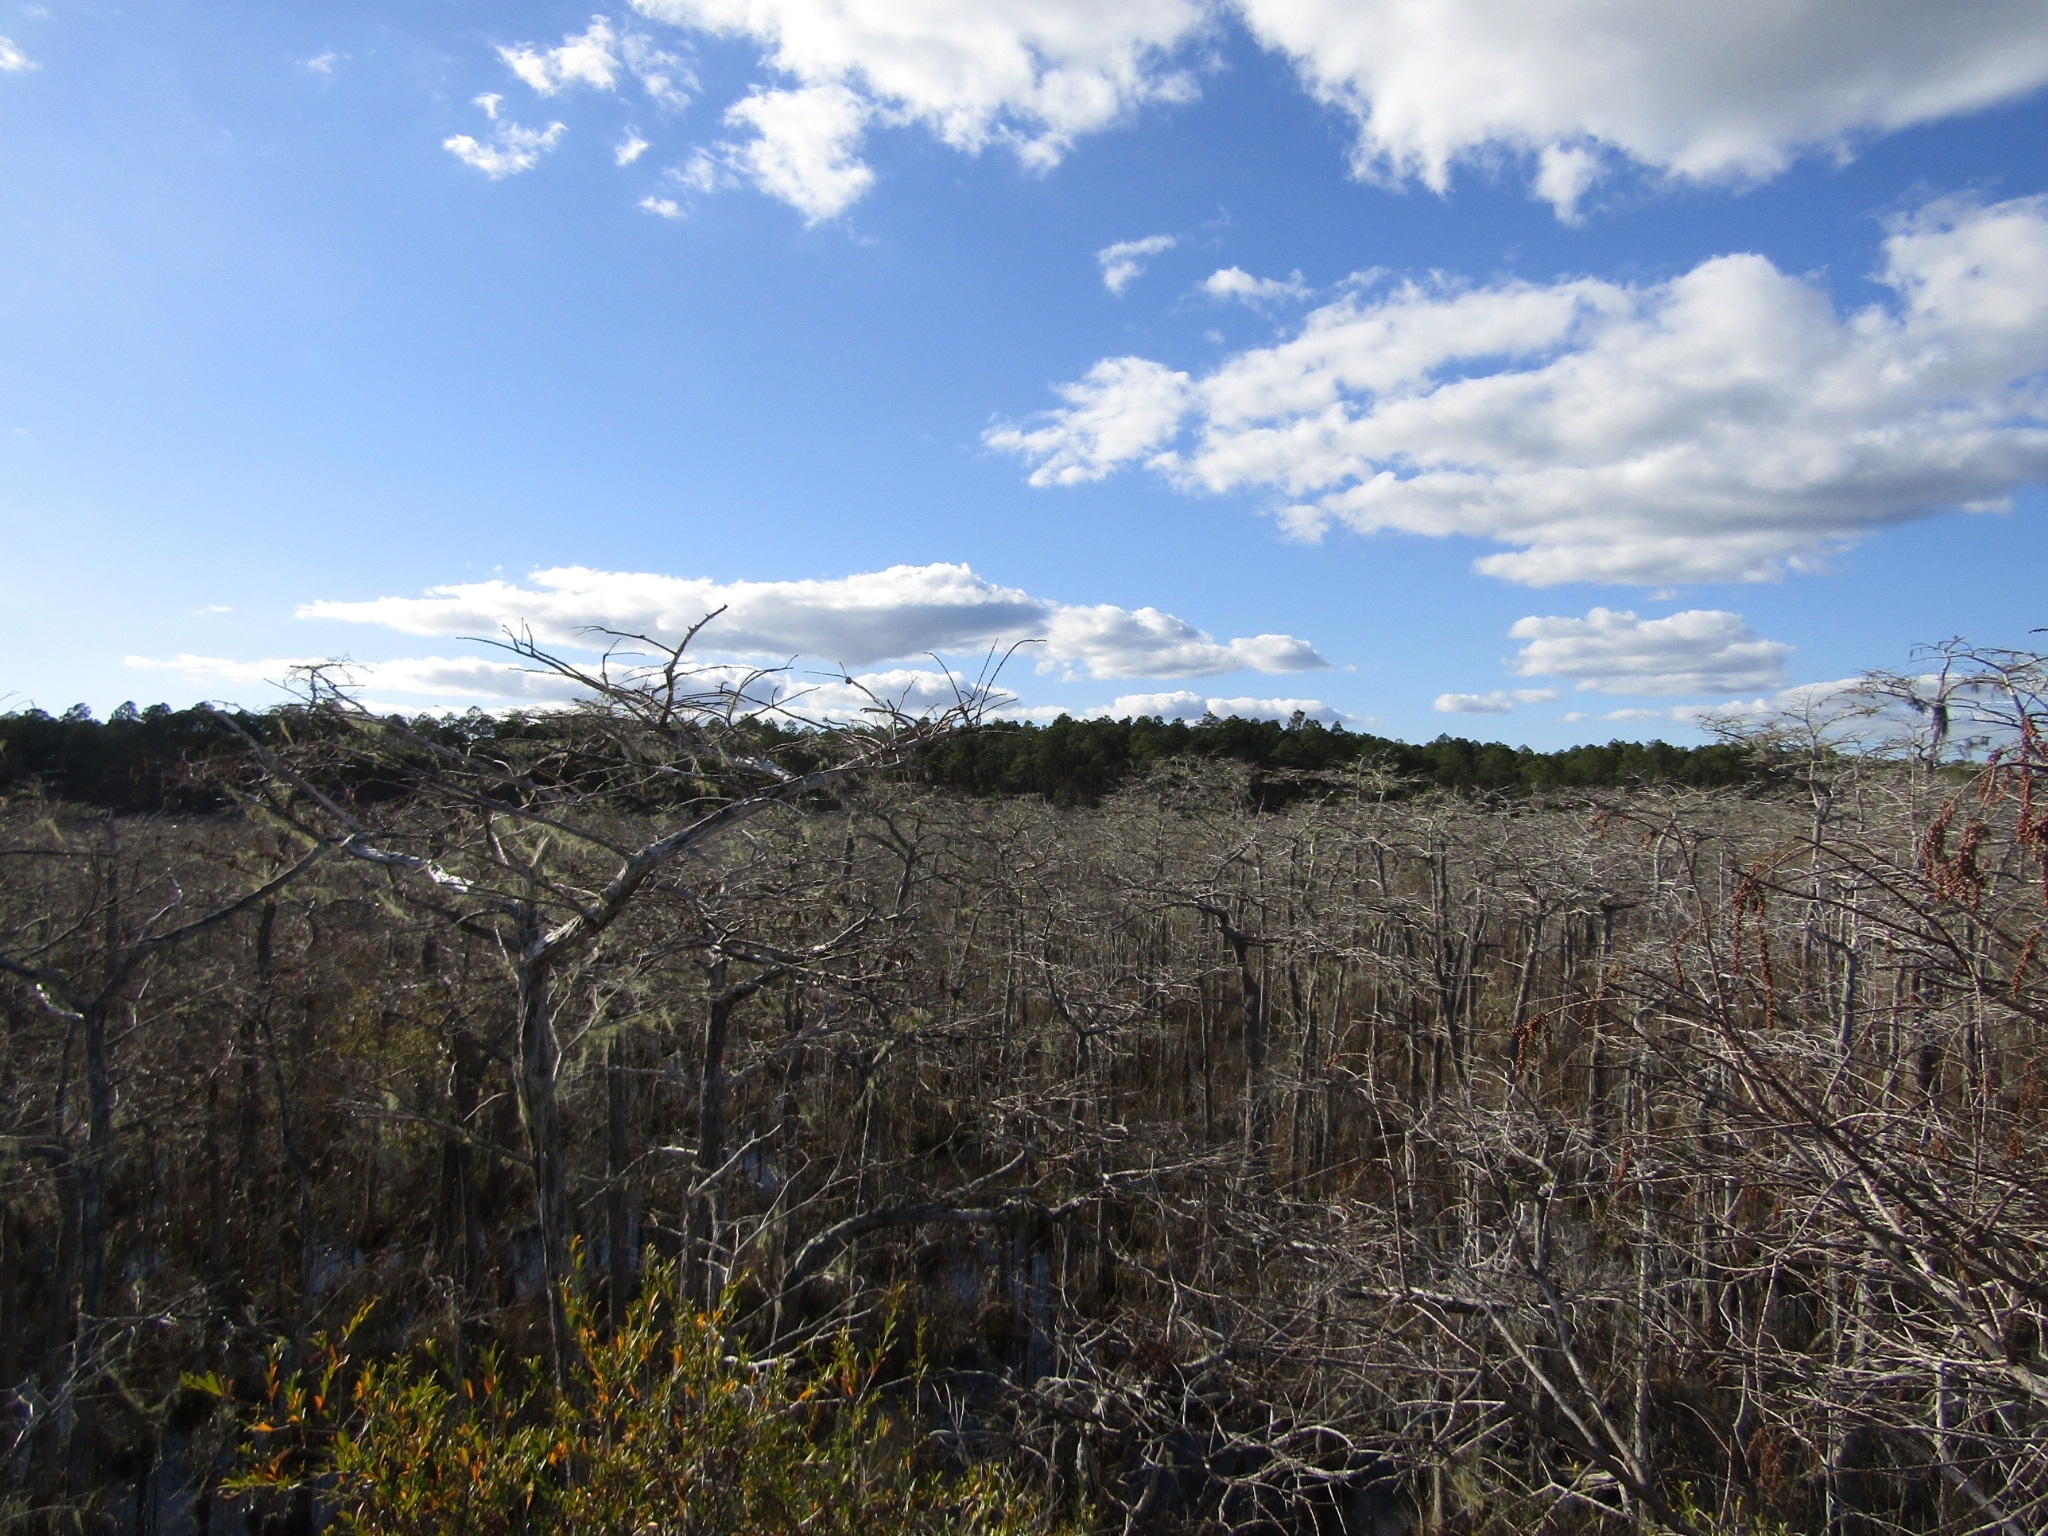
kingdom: Fungi
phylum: Ascomycota
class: Lecanoromycetes
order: Lecanorales
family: Parmeliaceae
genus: Usnea
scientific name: Usnea
